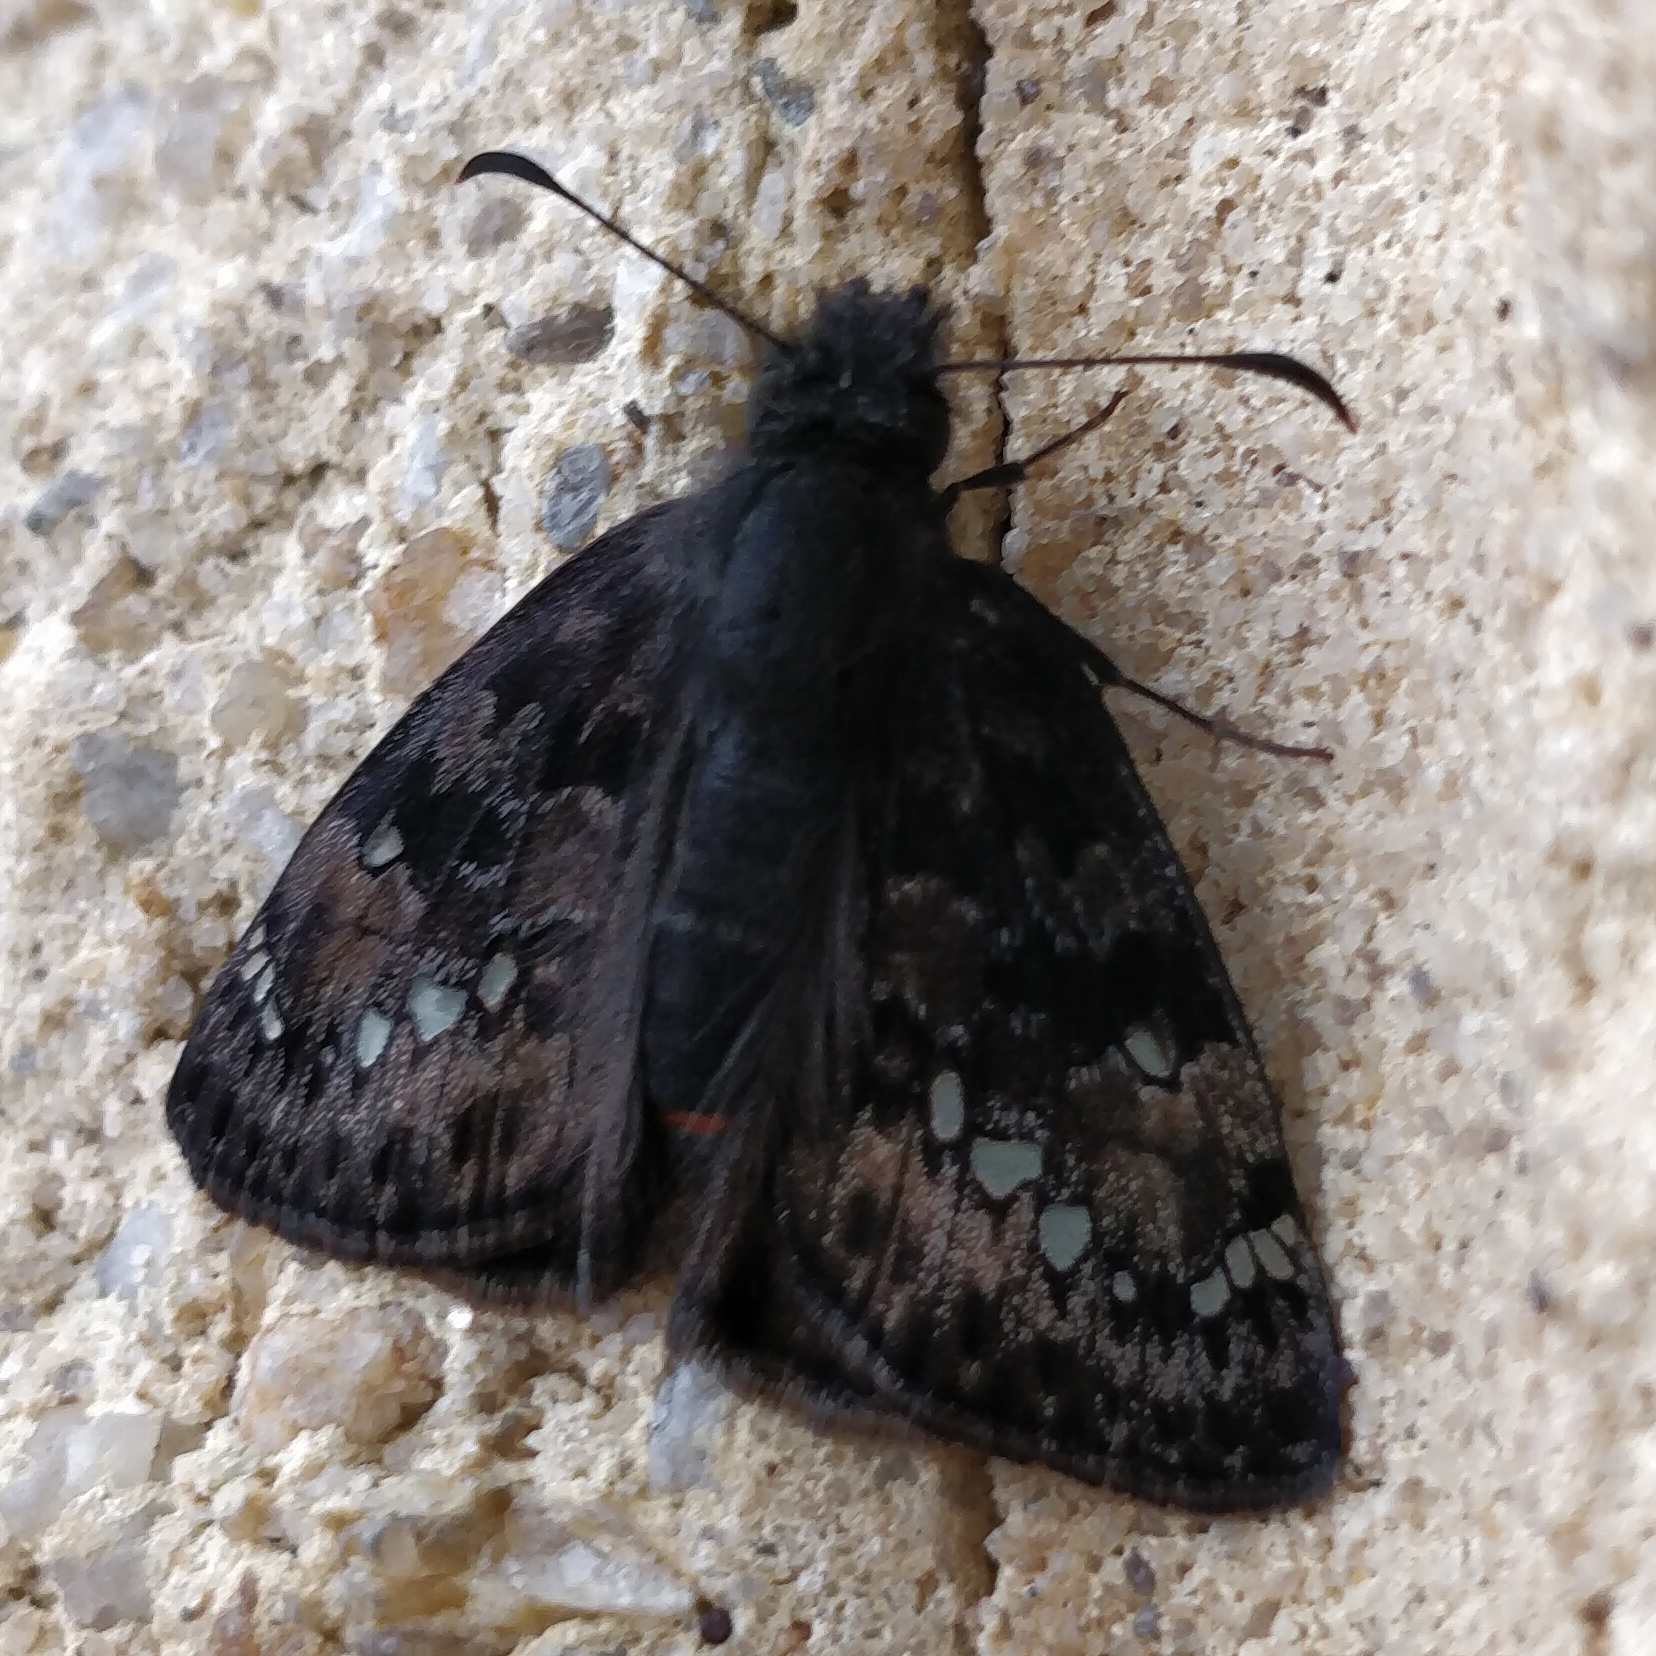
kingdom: Animalia
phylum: Arthropoda
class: Insecta
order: Lepidoptera
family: Hesperiidae
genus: Erynnis
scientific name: Erynnis juvenalis
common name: Juvenal's duskywing
